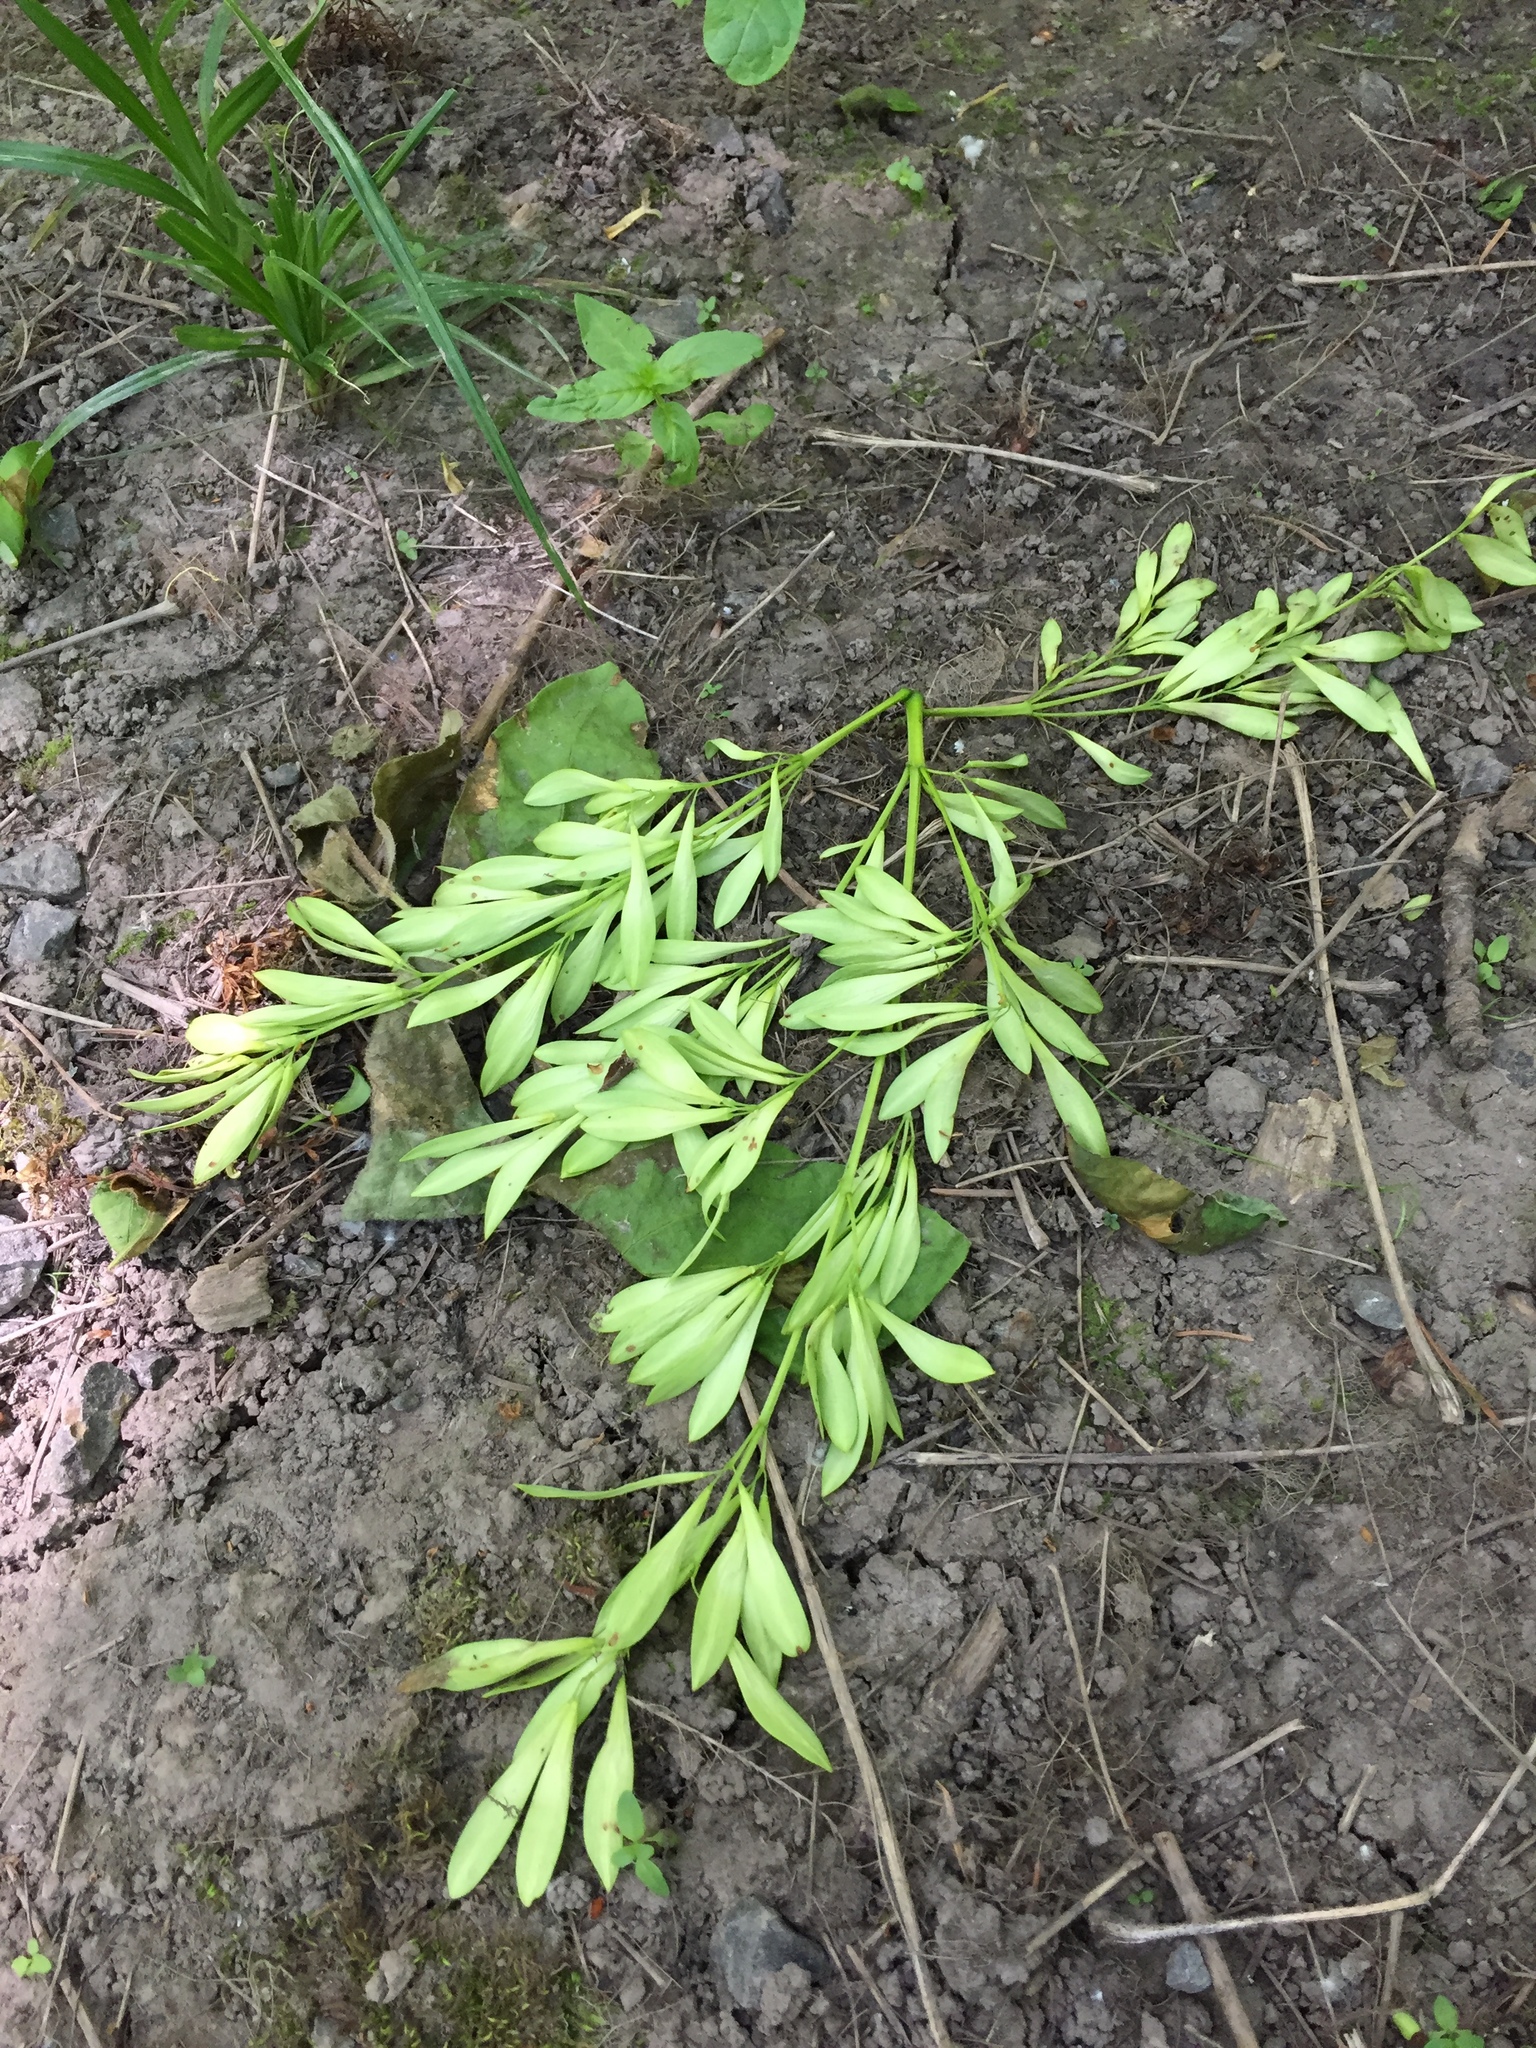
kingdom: Plantae
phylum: Tracheophyta
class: Magnoliopsida
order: Lamiales
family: Oleaceae
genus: Fraxinus
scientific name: Fraxinus latifolia
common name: Oregon ash
